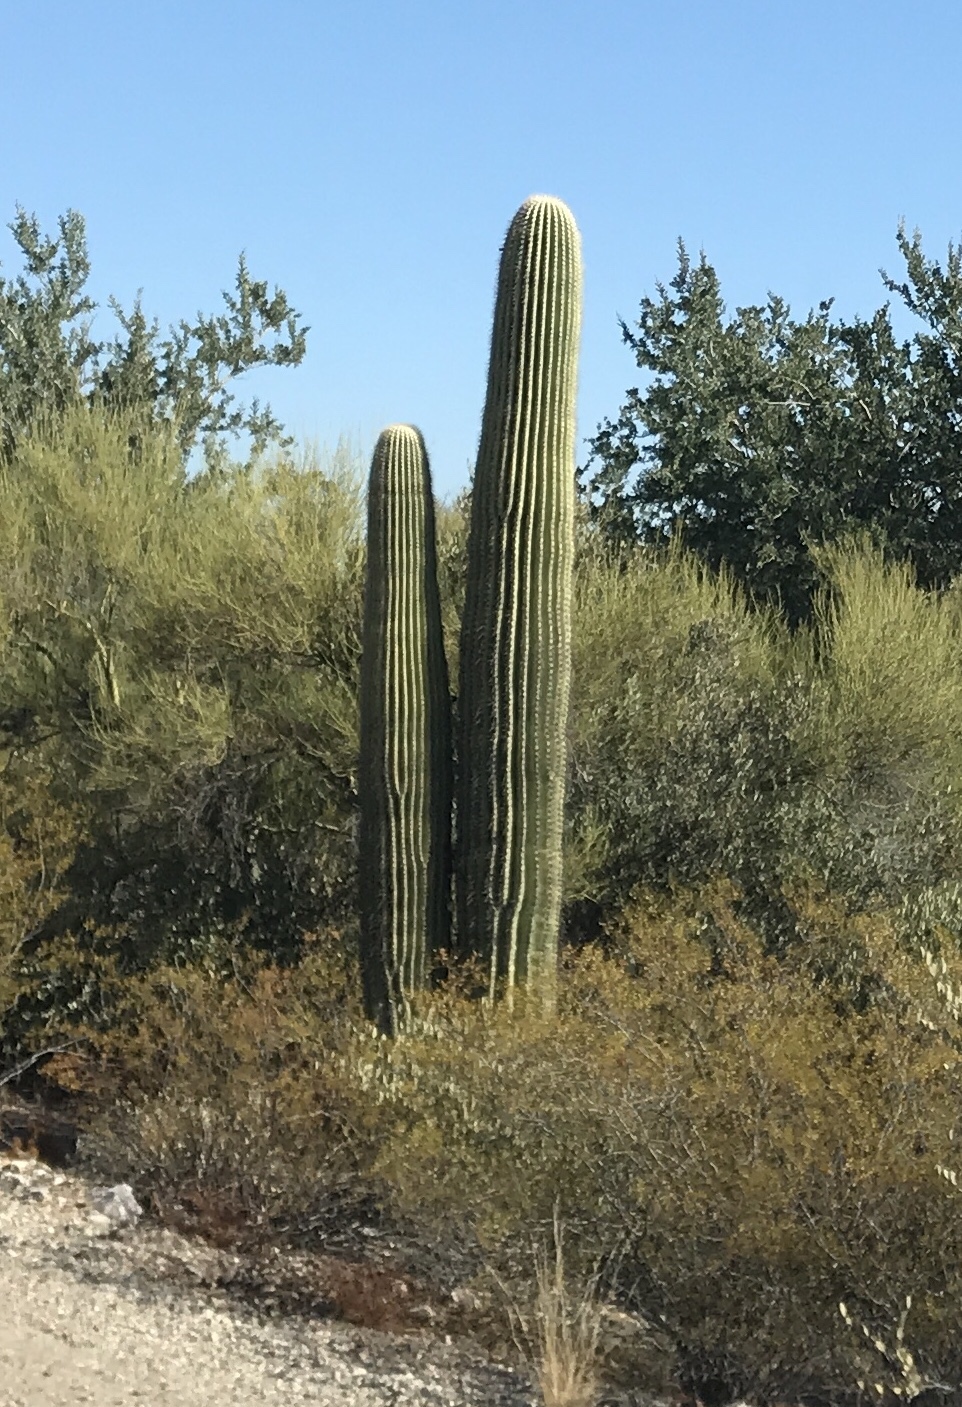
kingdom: Plantae
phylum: Tracheophyta
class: Magnoliopsida
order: Caryophyllales
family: Cactaceae
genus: Carnegiea
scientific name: Carnegiea gigantea
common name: Saguaro
